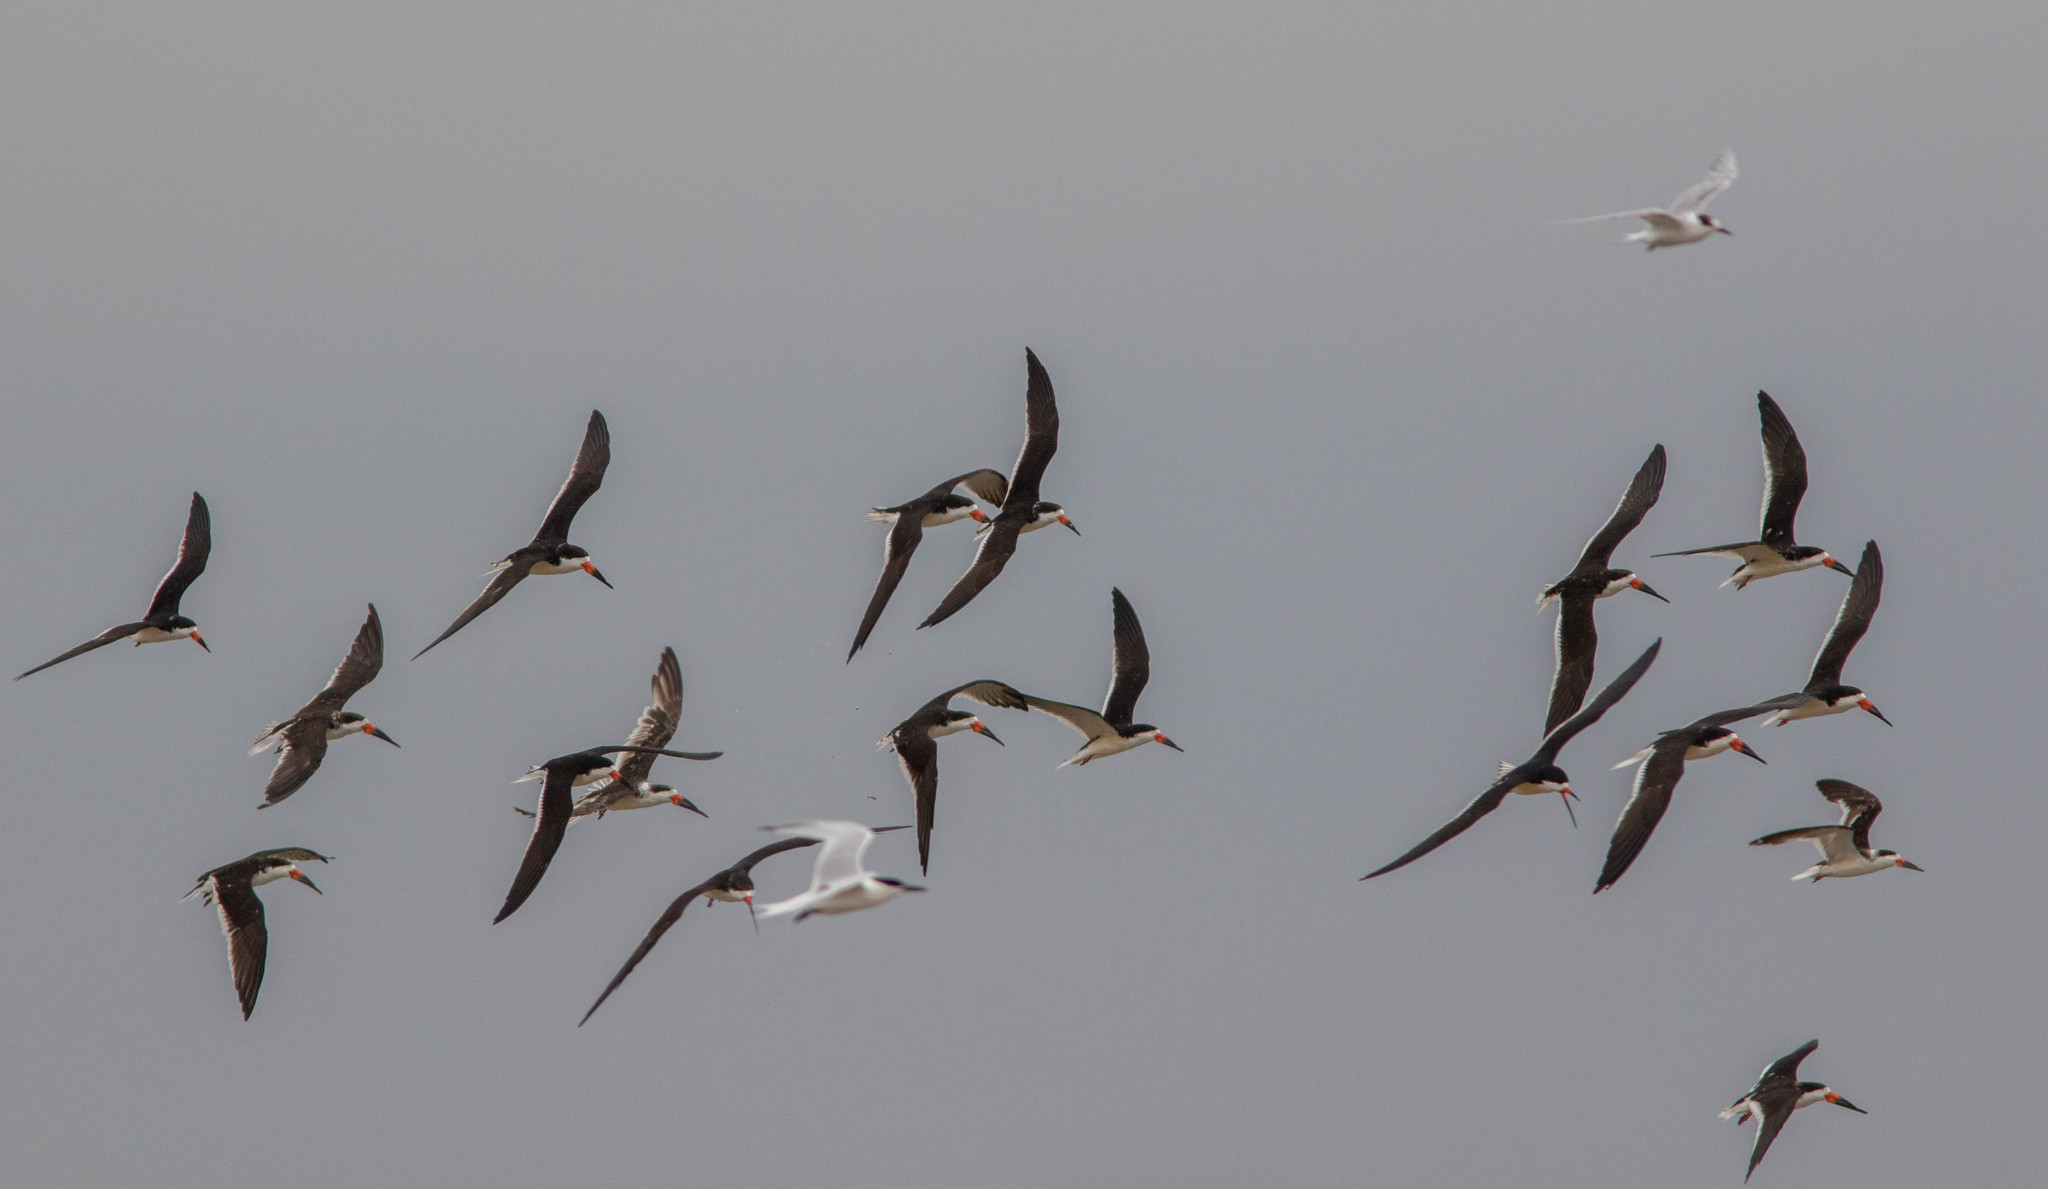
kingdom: Animalia
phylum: Chordata
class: Aves
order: Charadriiformes
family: Laridae
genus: Rynchops
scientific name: Rynchops niger
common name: Black skimmer
